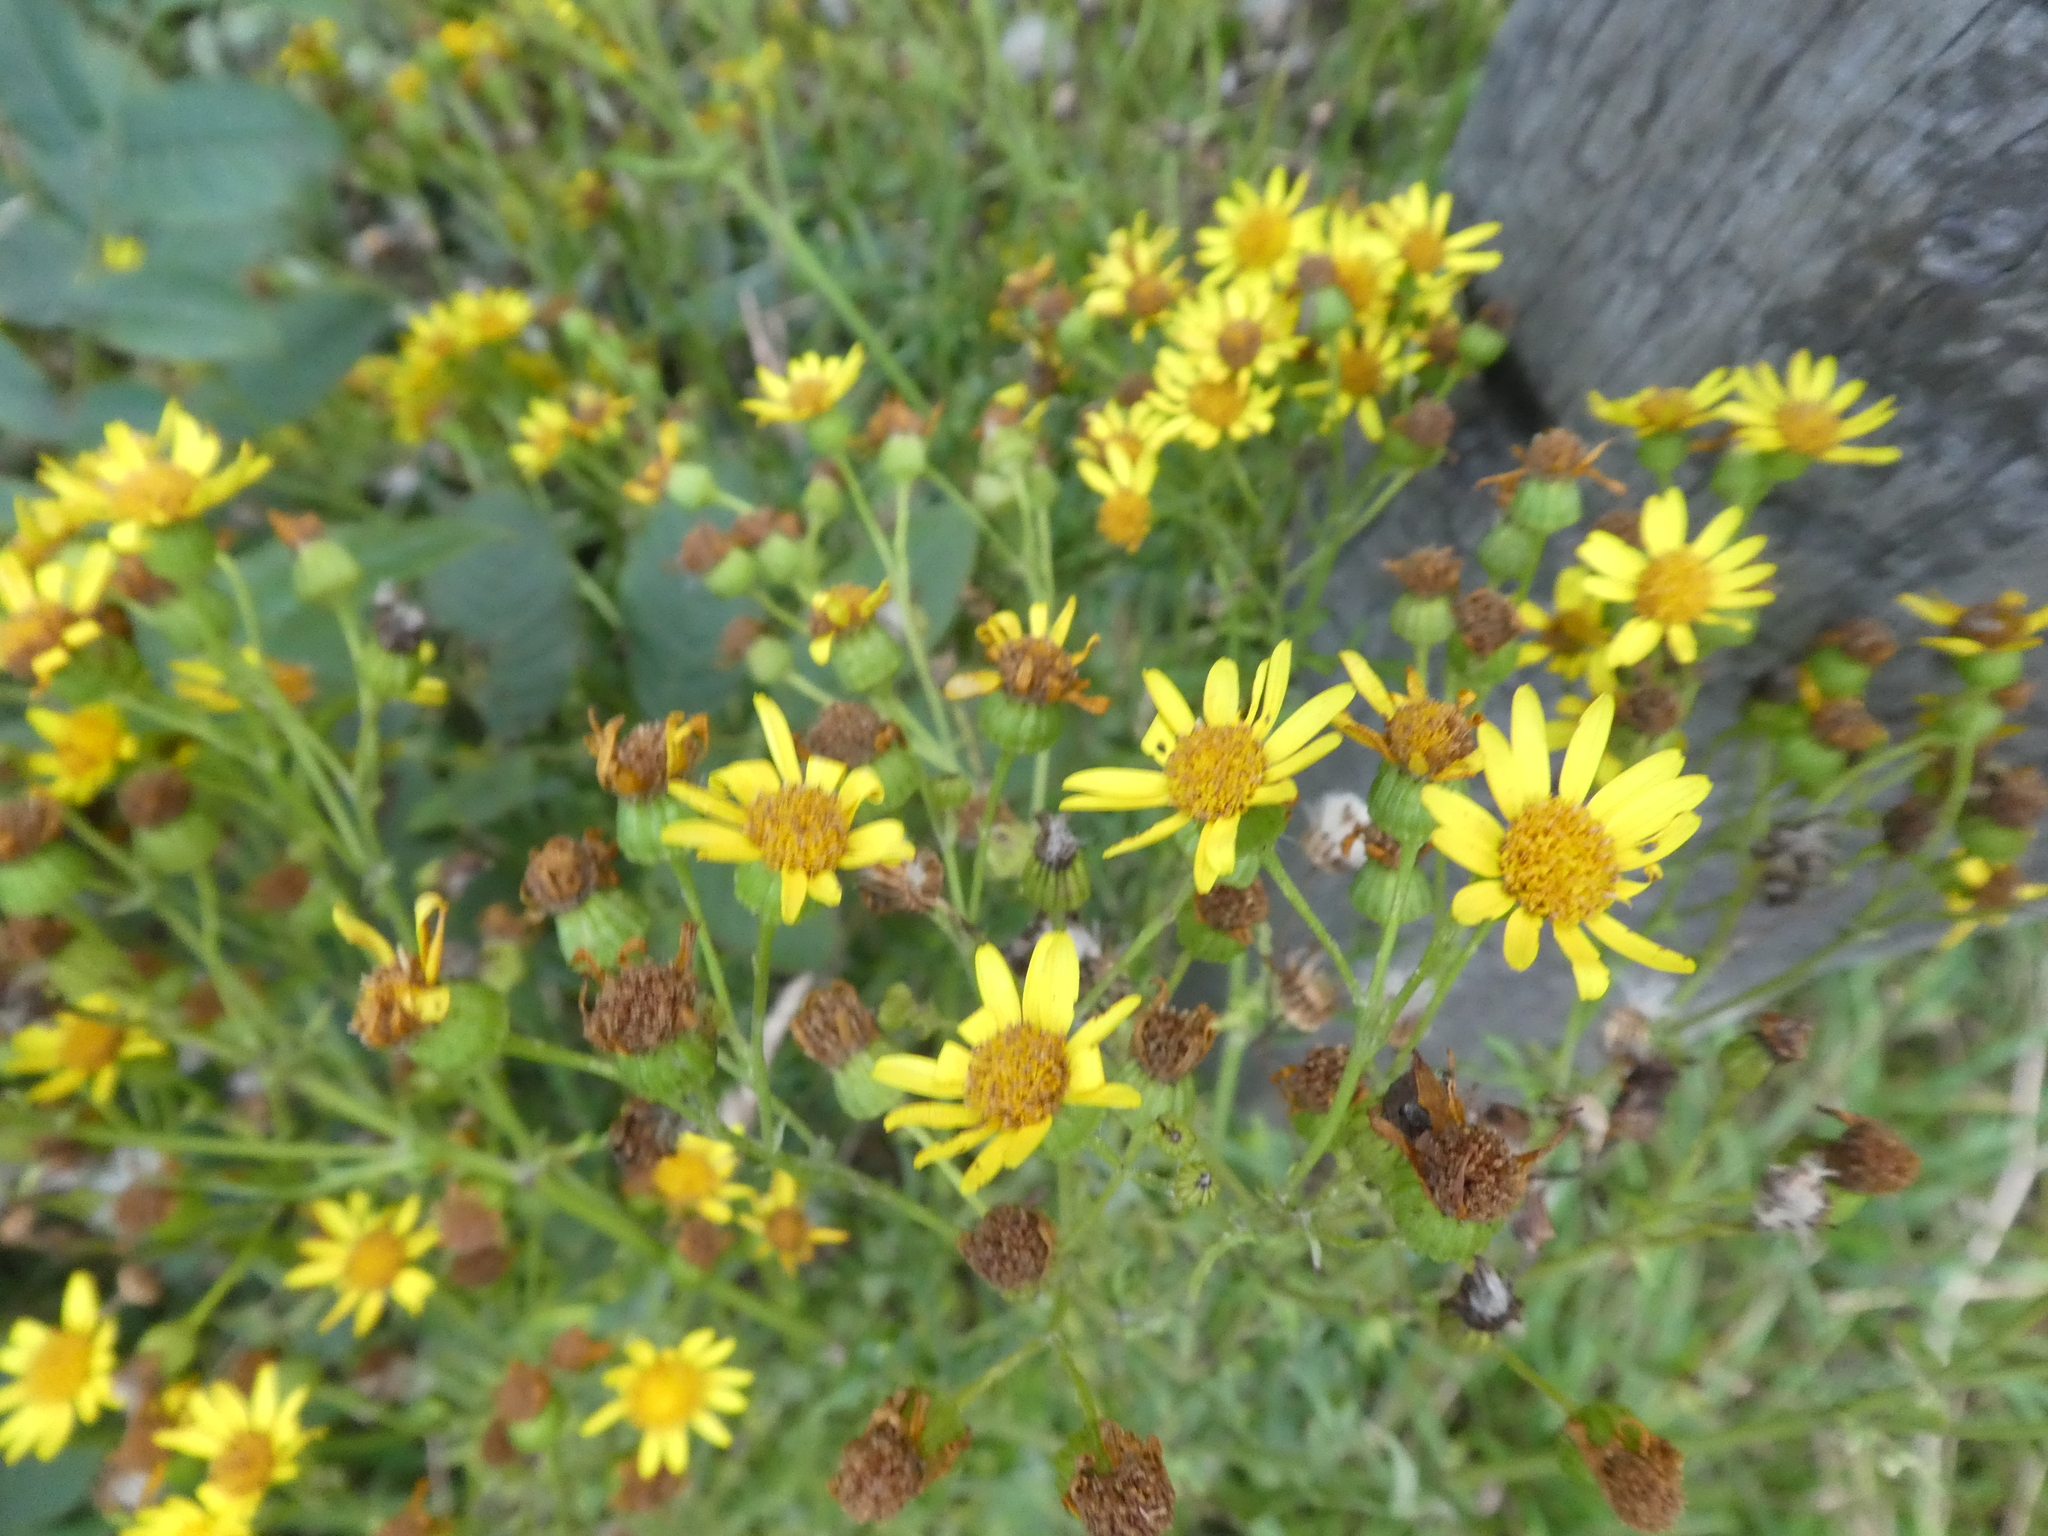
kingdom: Plantae
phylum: Tracheophyta
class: Magnoliopsida
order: Asterales
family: Asteraceae
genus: Jacobaea
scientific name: Jacobaea vulgaris
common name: Stinking willie
